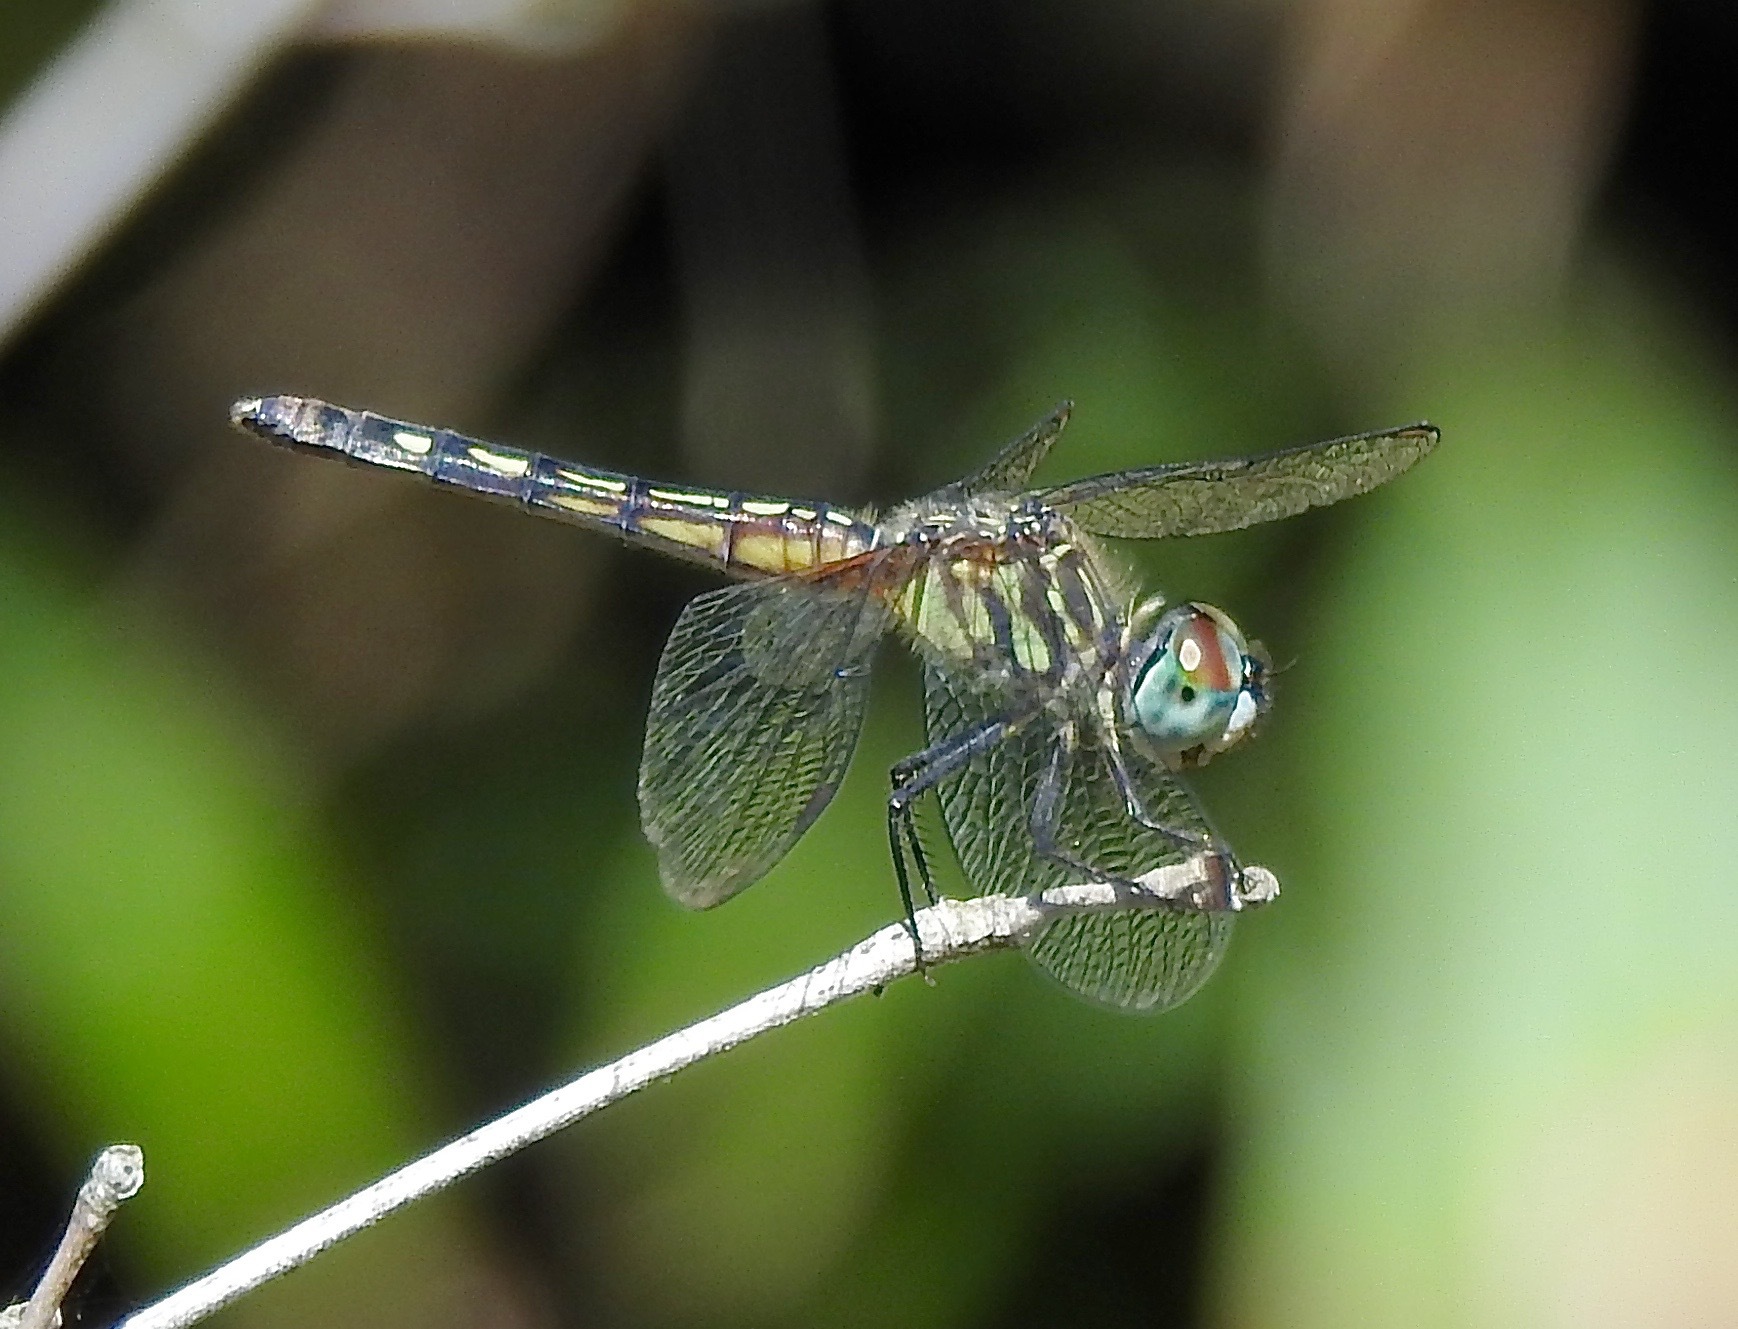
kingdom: Animalia
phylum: Arthropoda
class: Insecta
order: Odonata
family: Libellulidae
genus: Pachydiplax
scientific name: Pachydiplax longipennis
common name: Blue dasher
